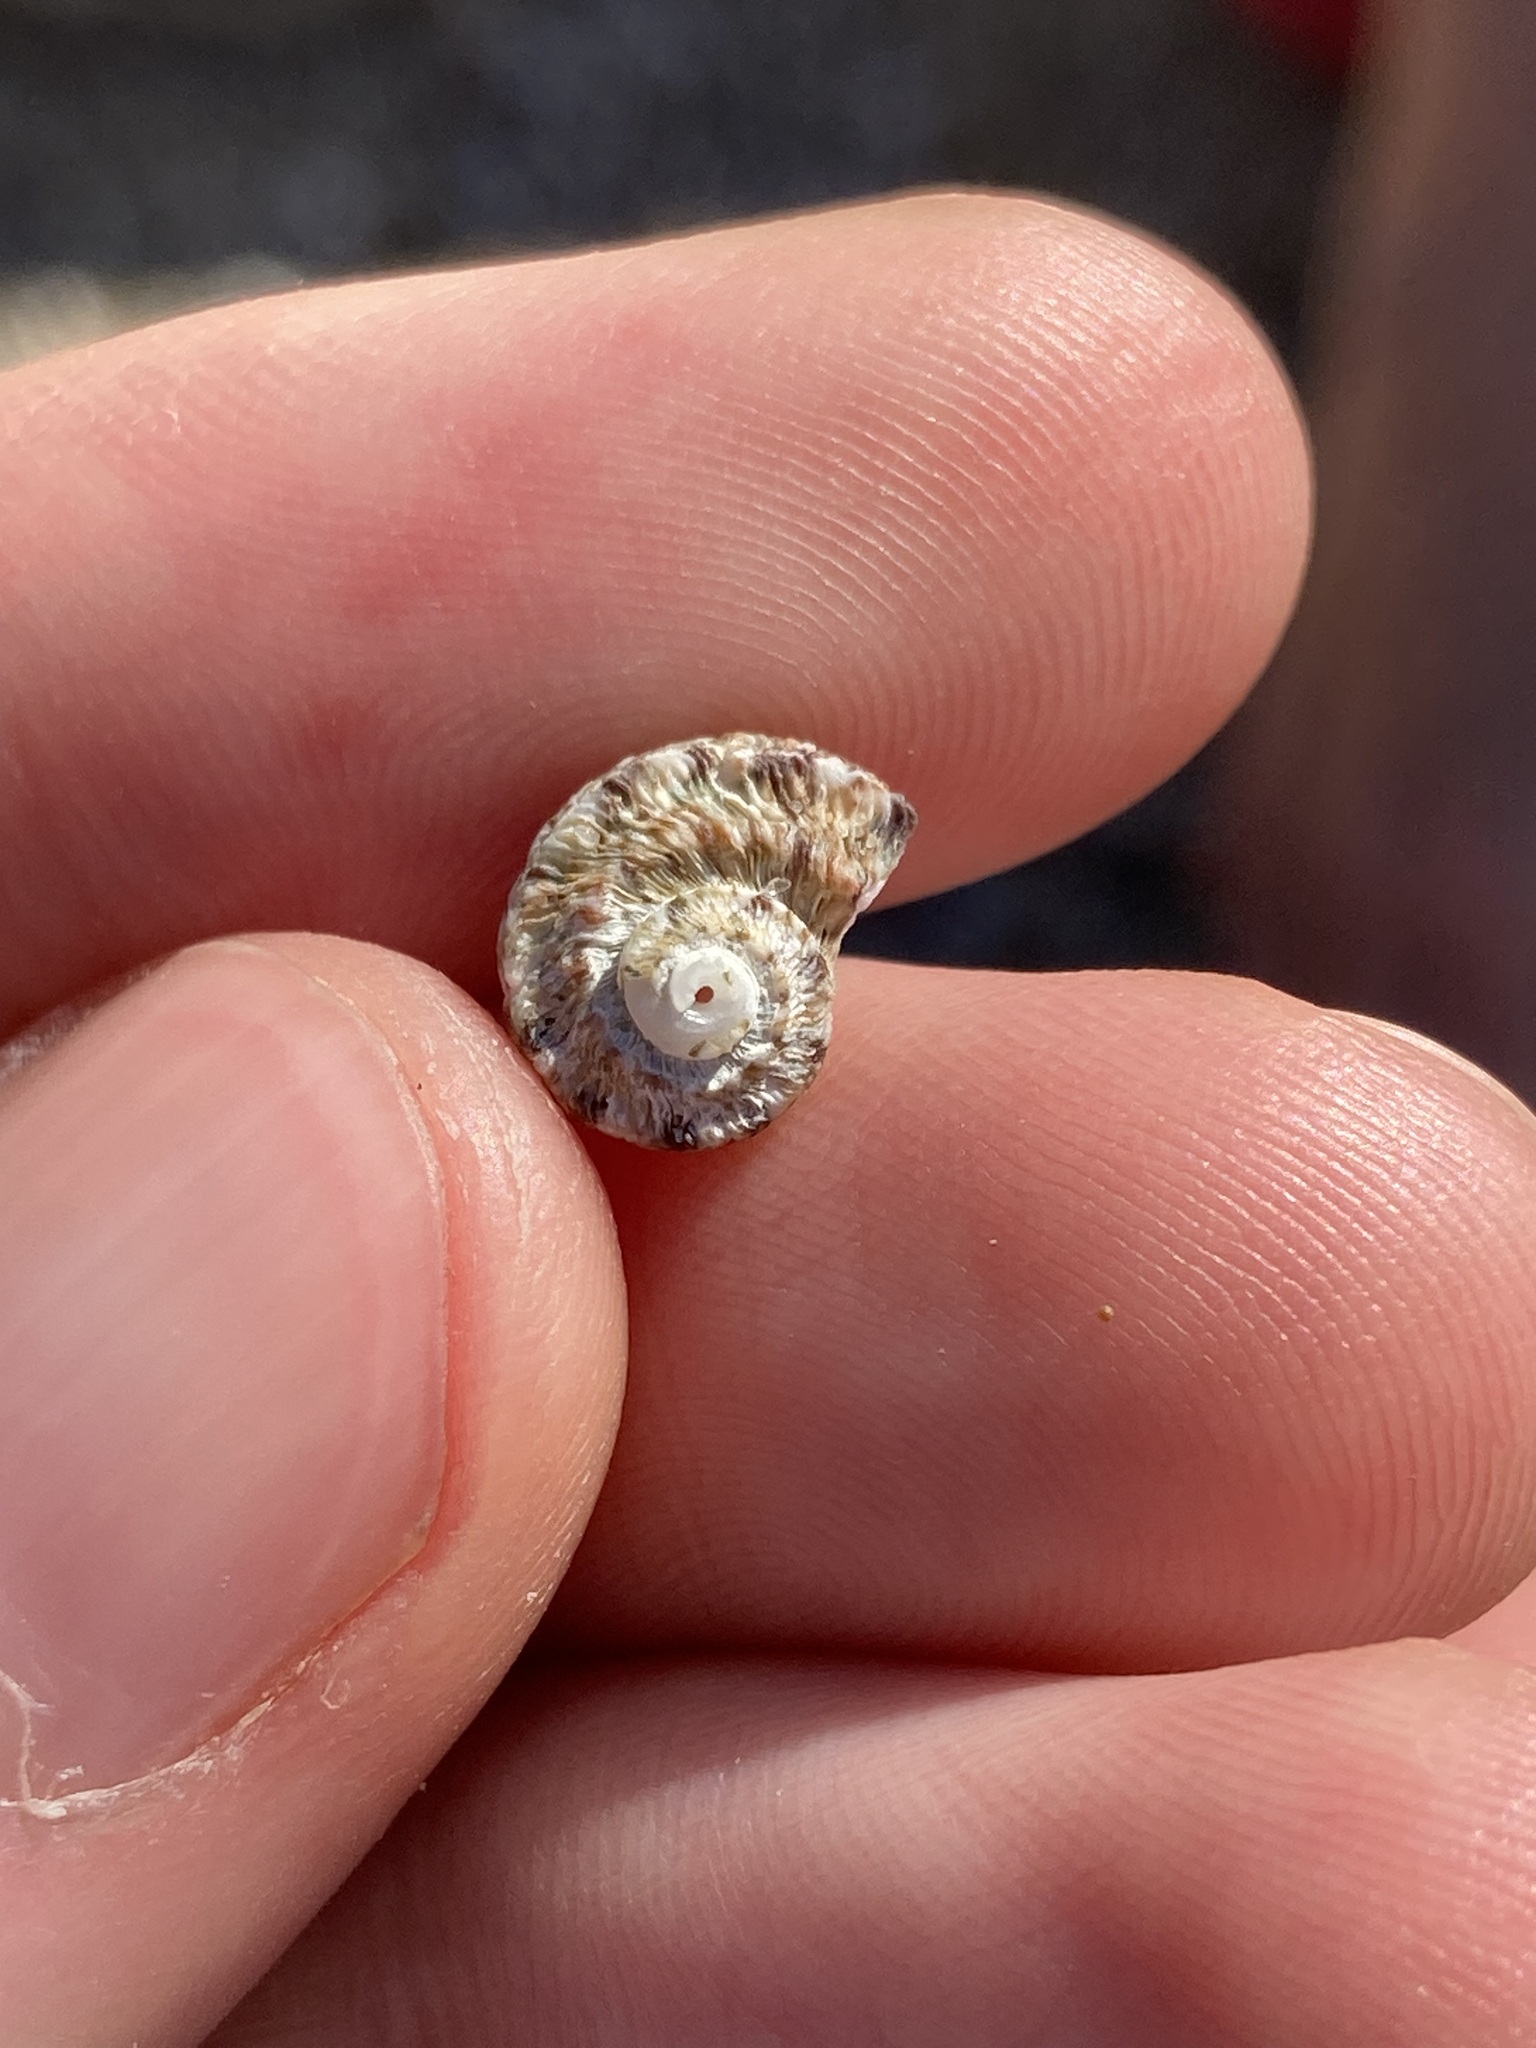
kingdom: Animalia
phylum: Mollusca
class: Gastropoda
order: Trochida
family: Turbinidae
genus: Lunella
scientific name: Lunella torquata
